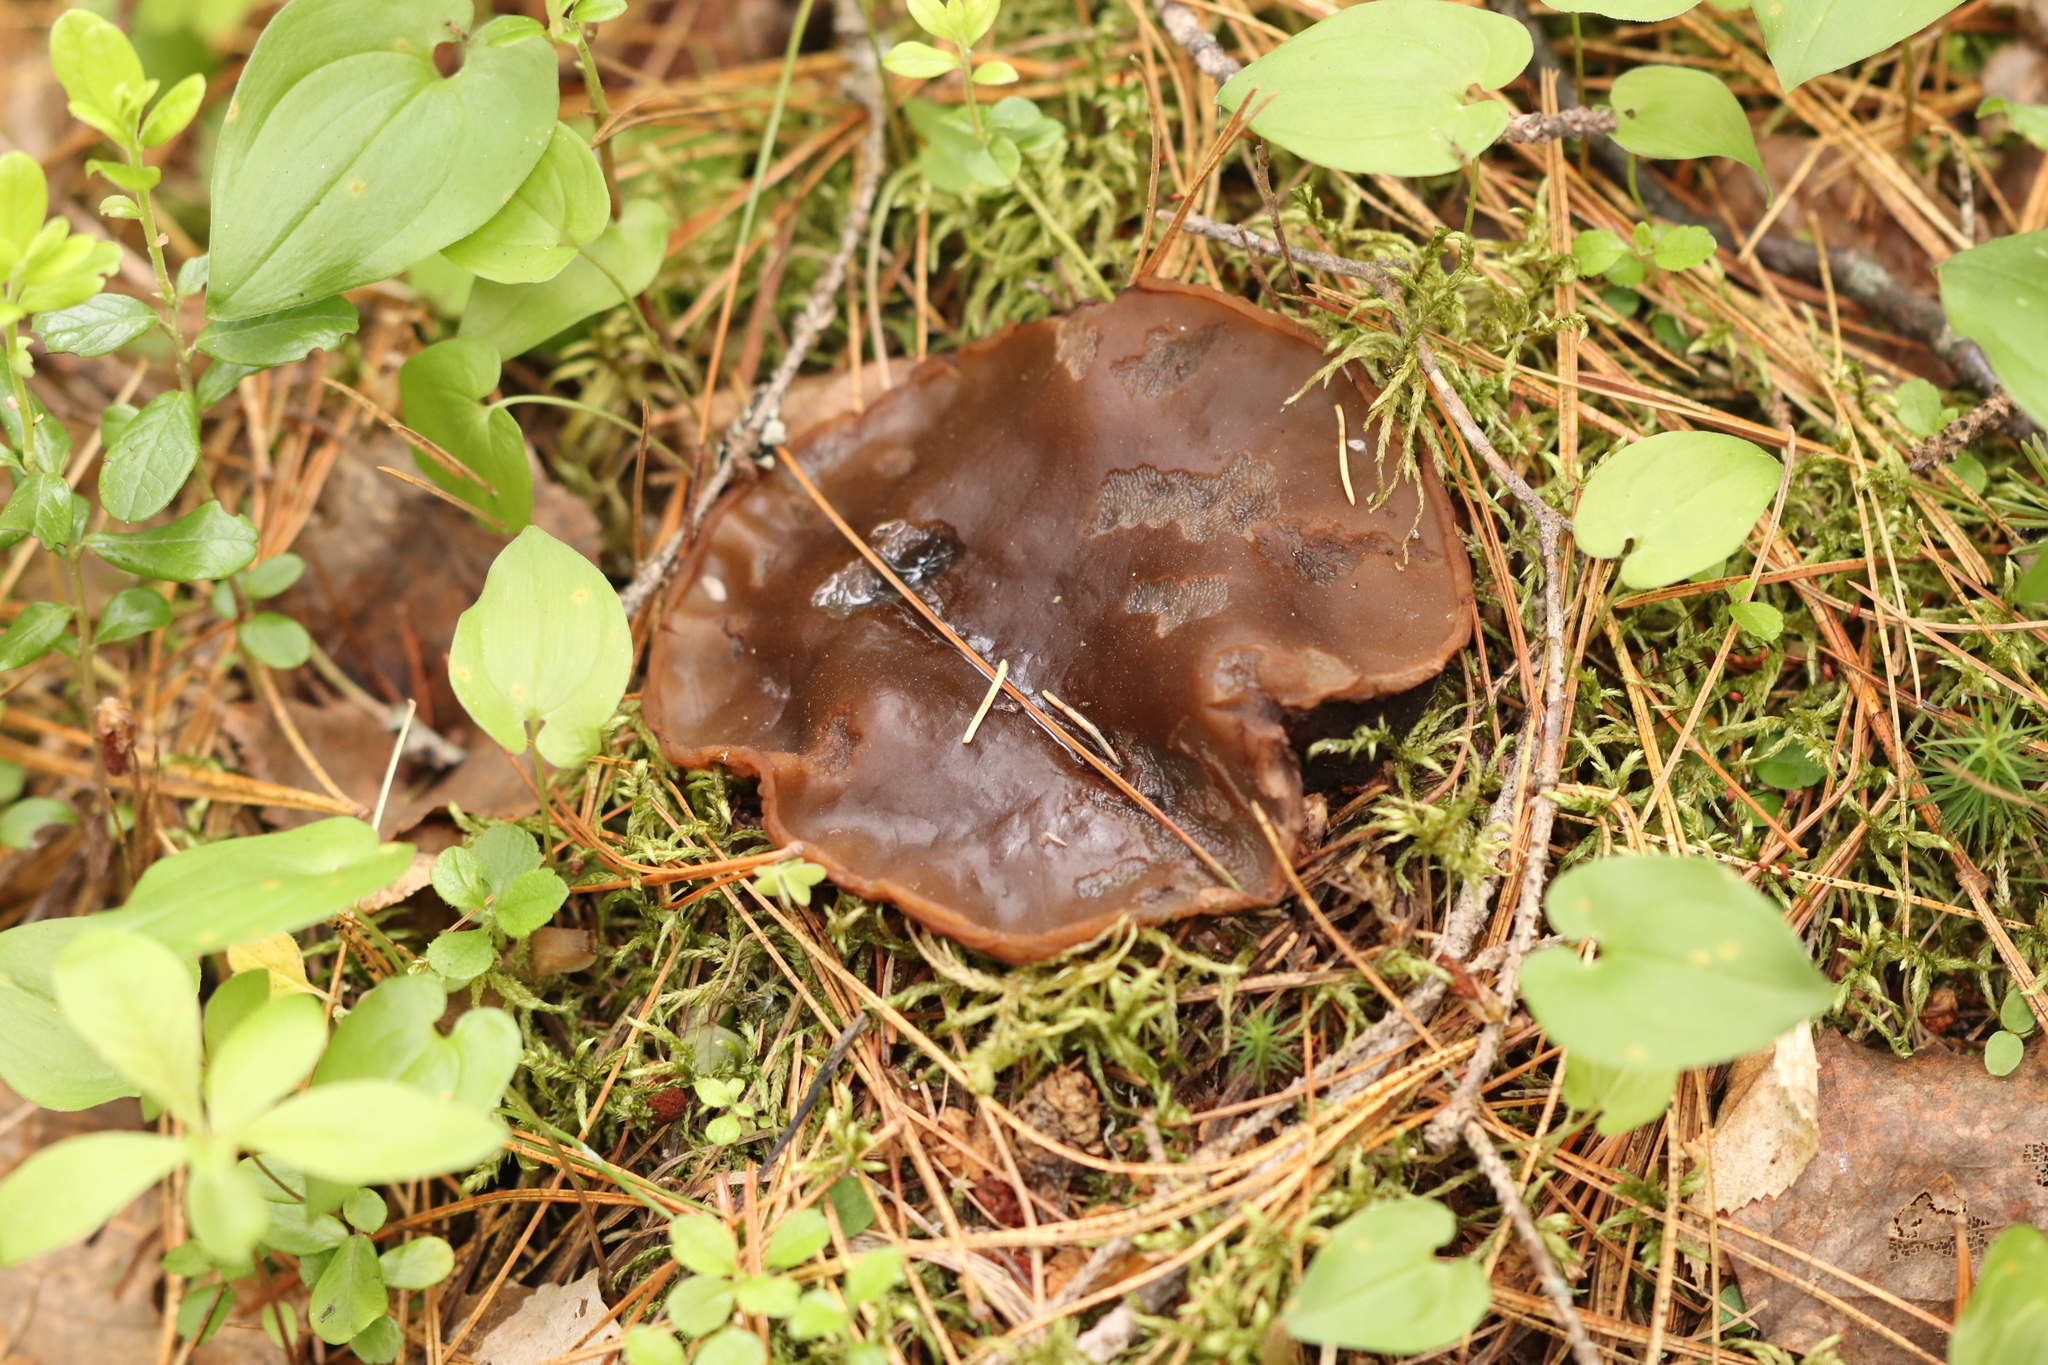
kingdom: Fungi
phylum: Ascomycota
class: Pezizomycetes
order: Pezizales
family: Sarcosomataceae
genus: Sarcosoma
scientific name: Sarcosoma globosum
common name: Charred-pancake cup
